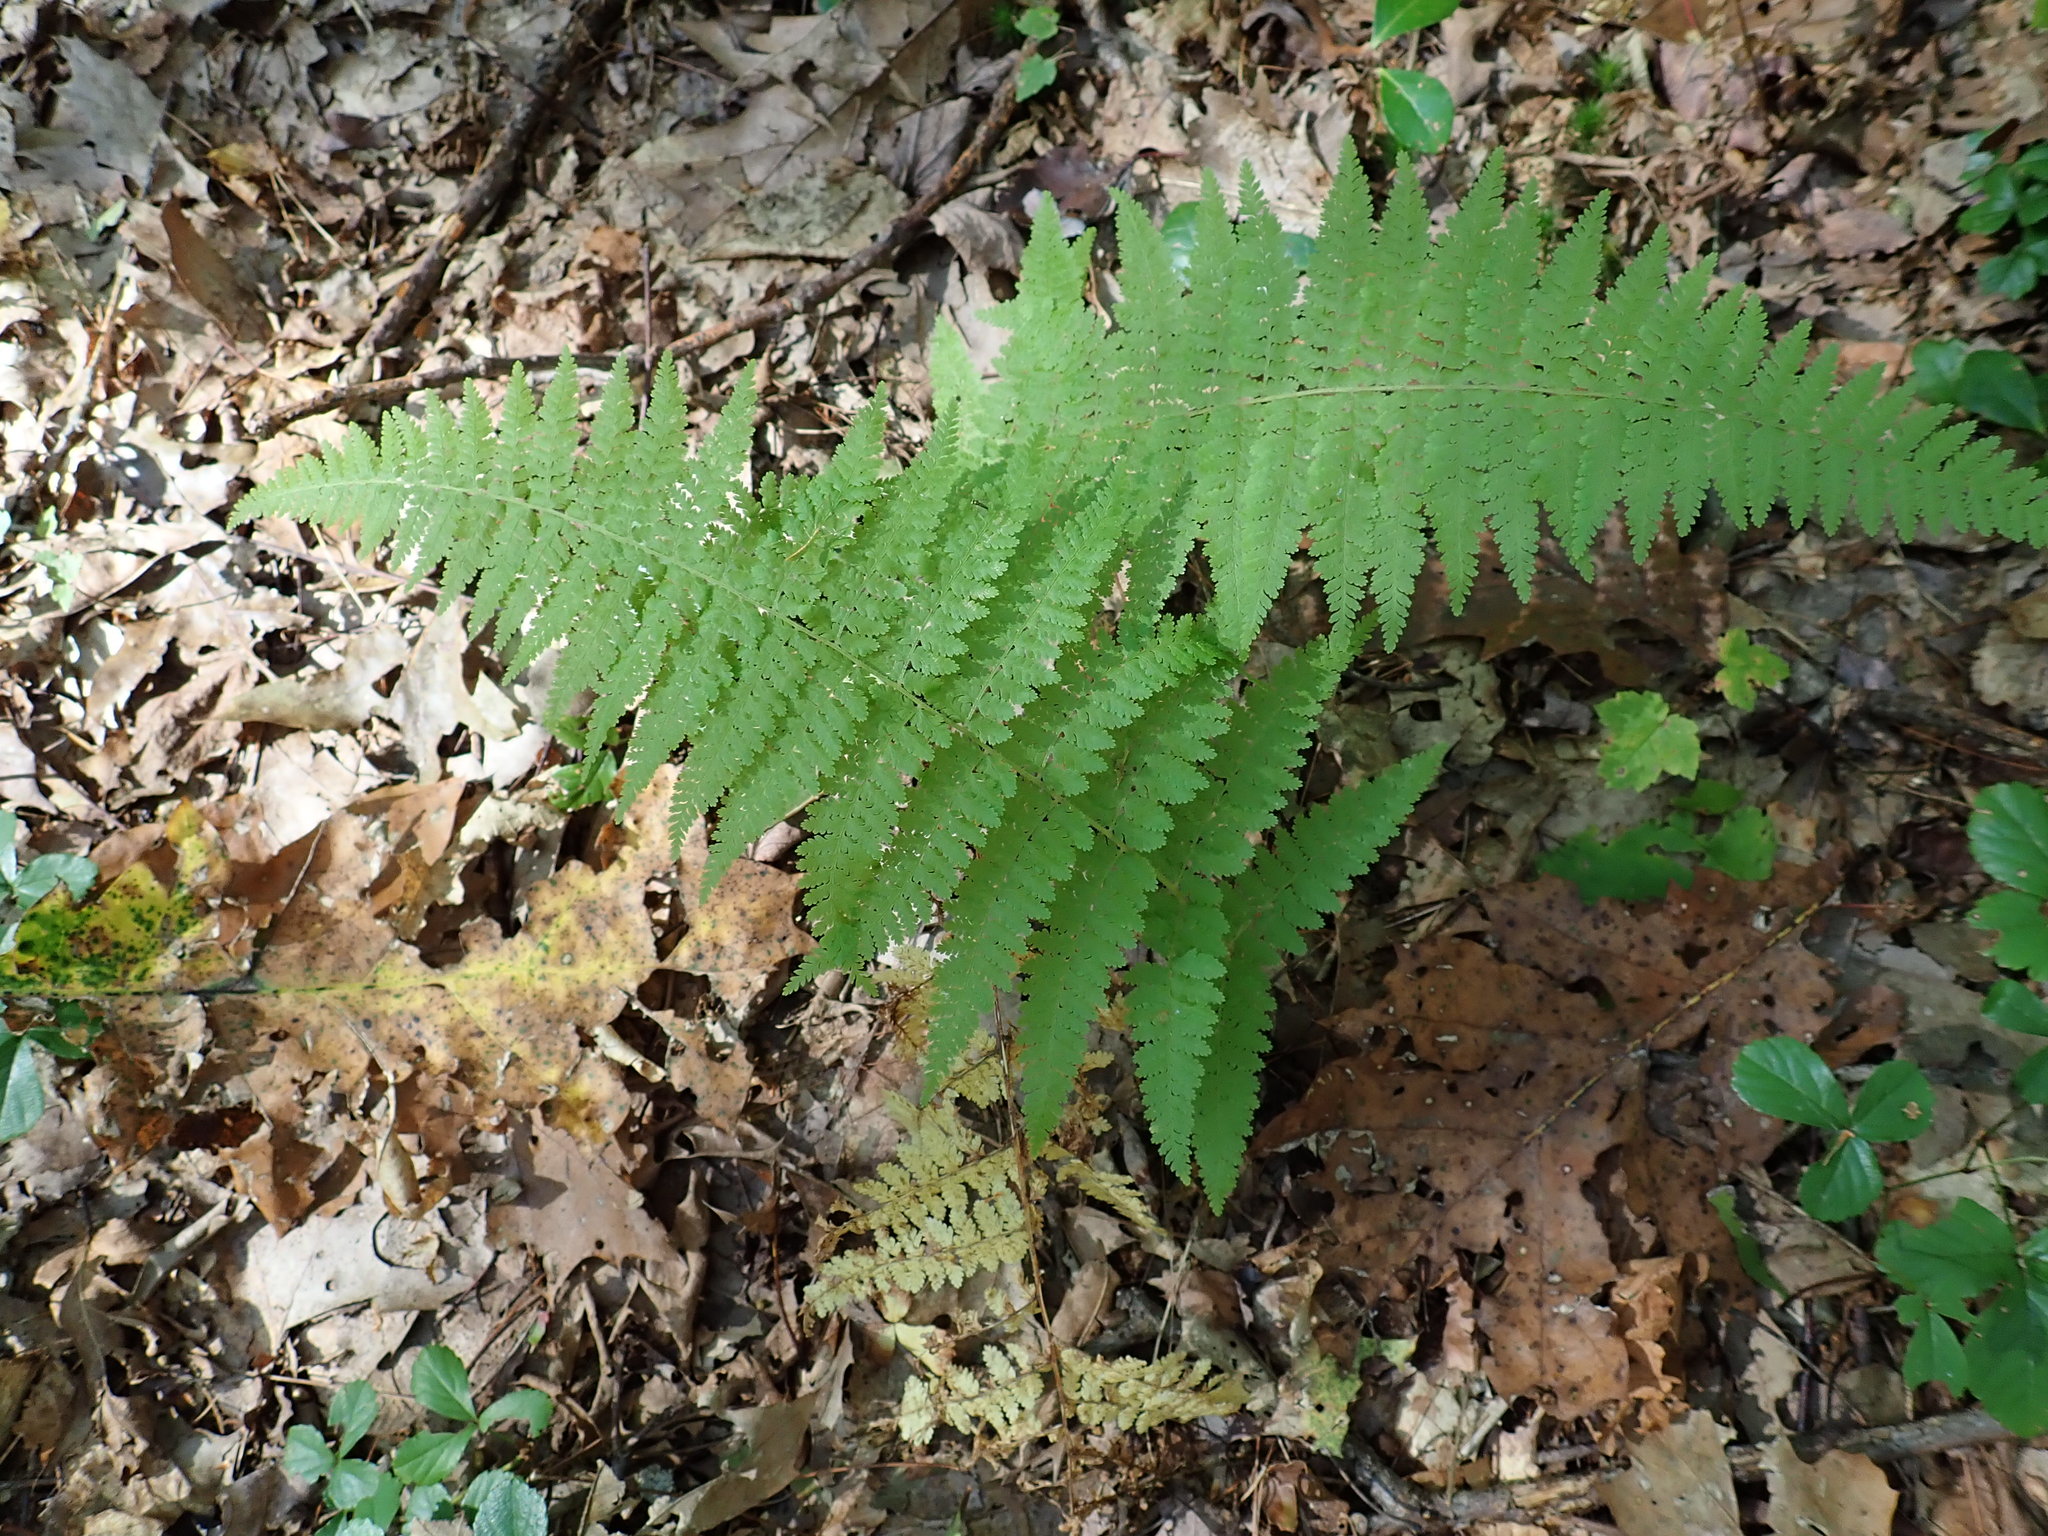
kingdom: Plantae
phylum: Tracheophyta
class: Polypodiopsida
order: Polypodiales
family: Dennstaedtiaceae
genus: Sitobolium
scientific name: Sitobolium punctilobum
